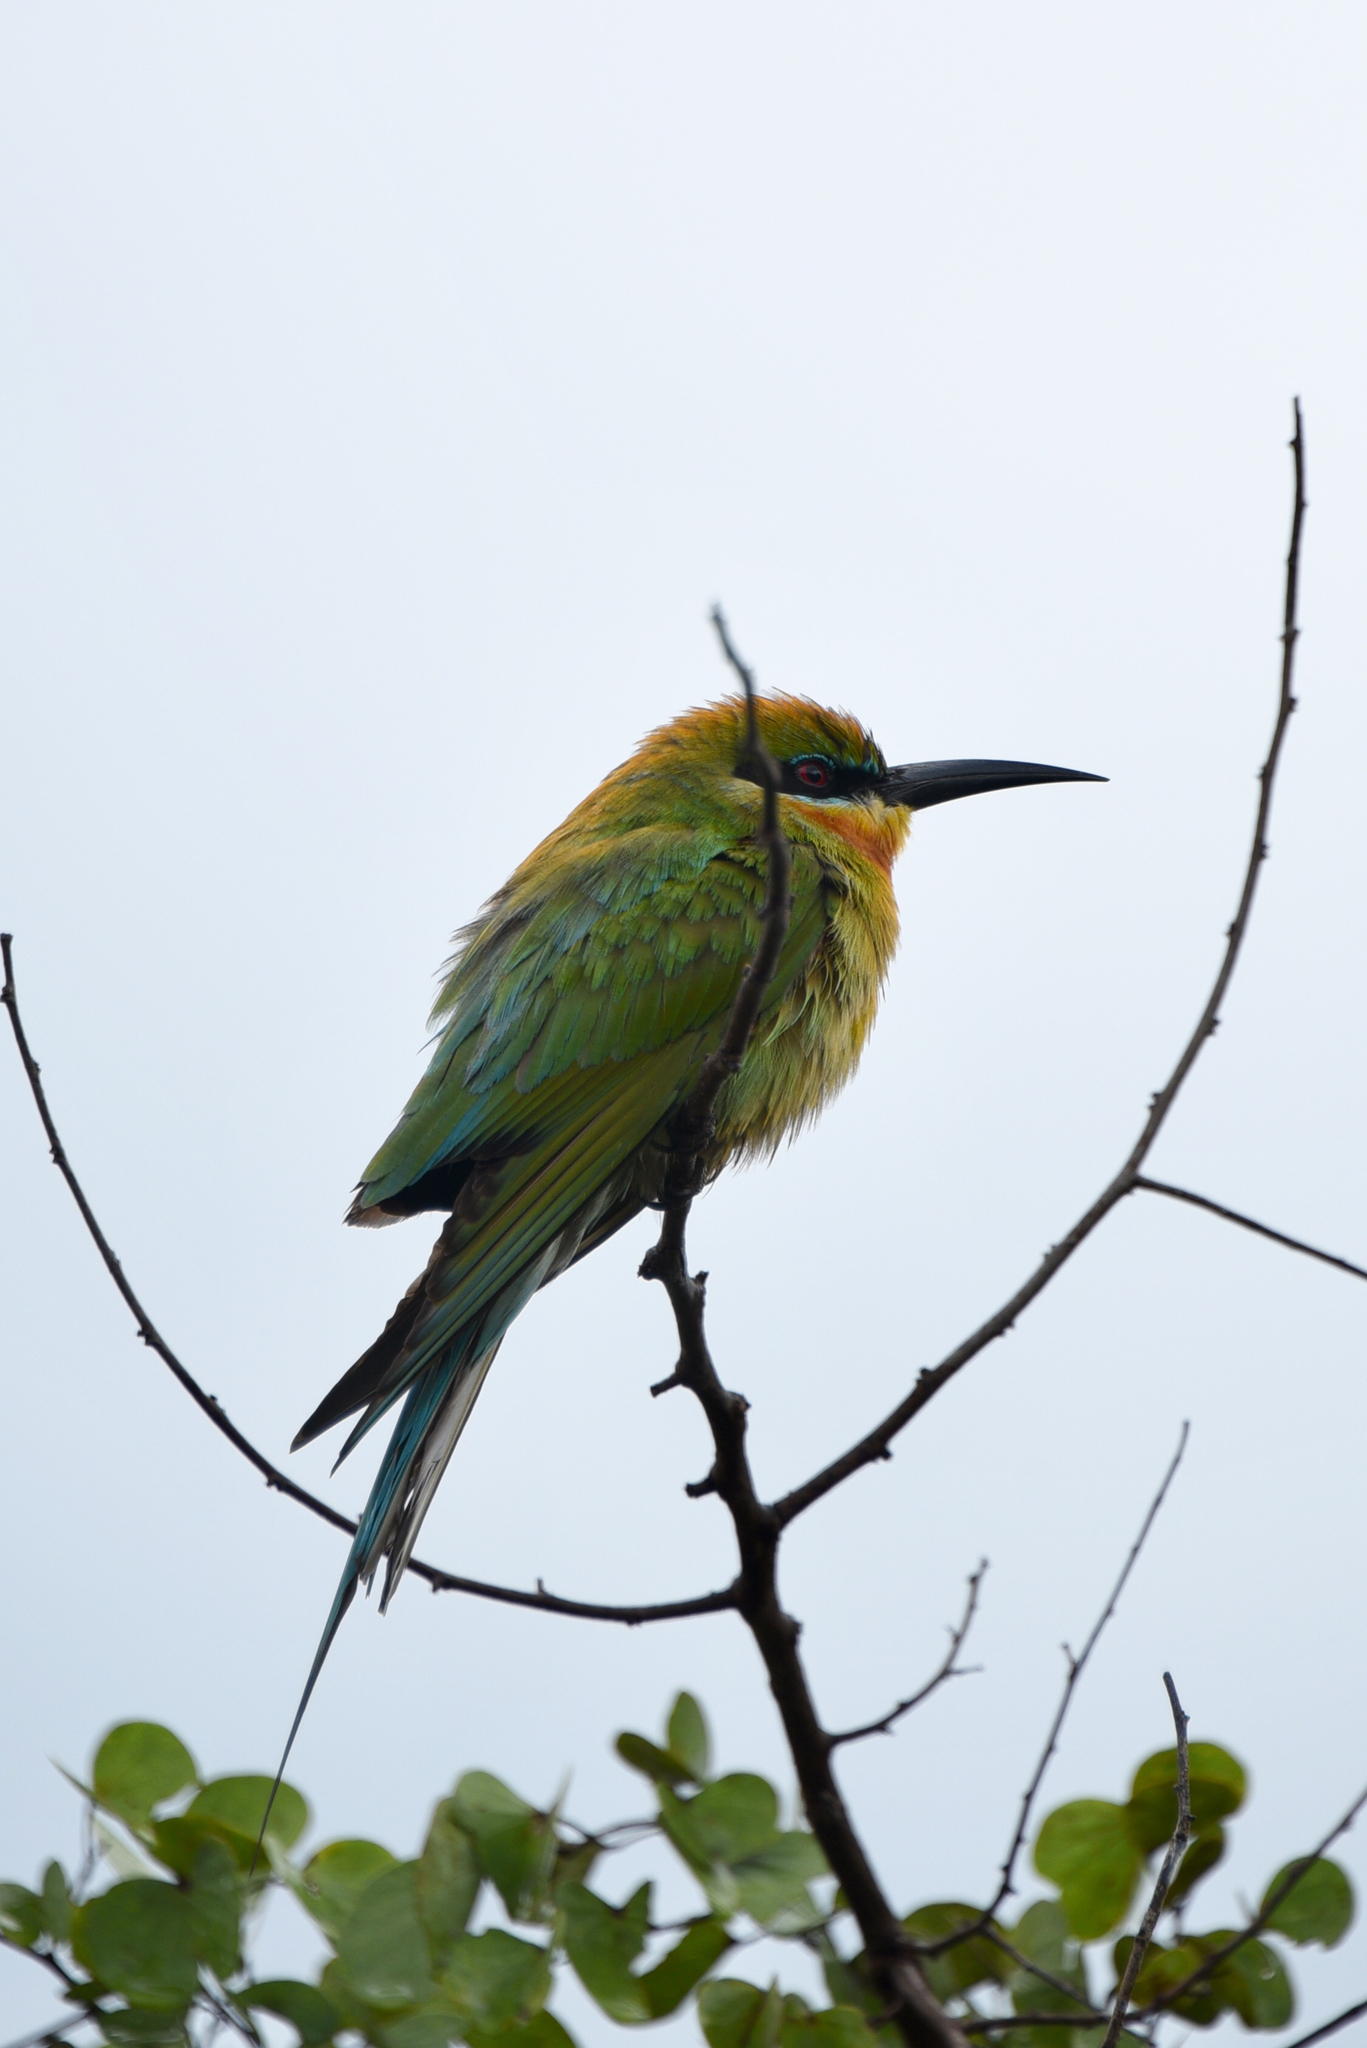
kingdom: Animalia
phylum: Chordata
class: Aves
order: Coraciiformes
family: Meropidae
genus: Merops
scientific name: Merops philippinus
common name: Blue-tailed bee-eater
